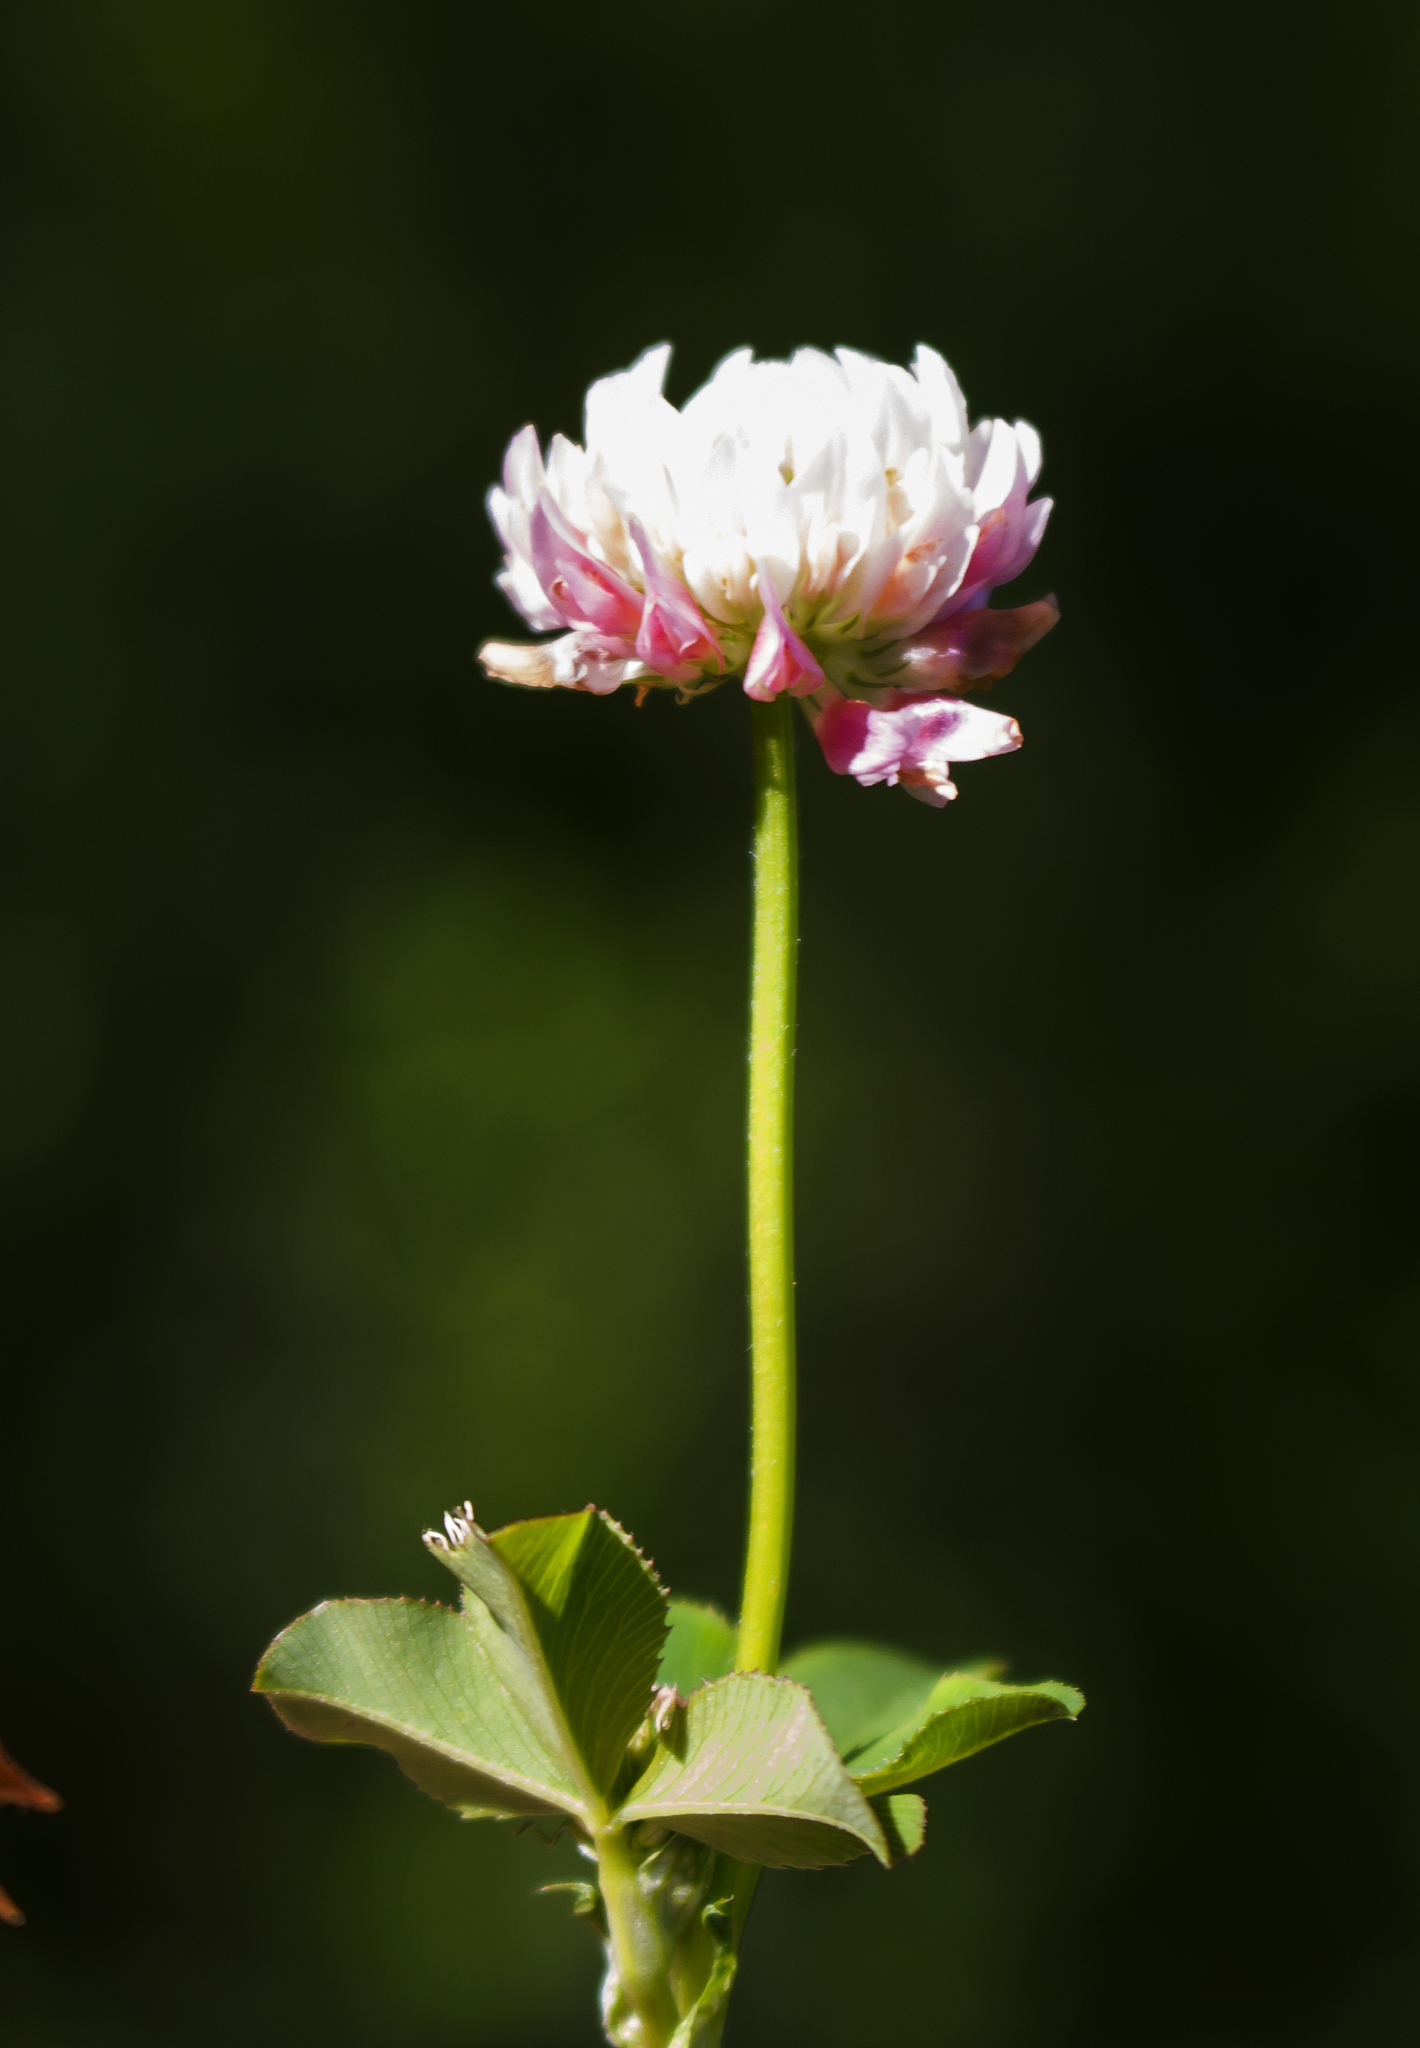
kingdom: Plantae
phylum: Tracheophyta
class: Magnoliopsida
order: Fabales
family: Fabaceae
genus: Trifolium
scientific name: Trifolium hybridum
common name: Alsike clover
